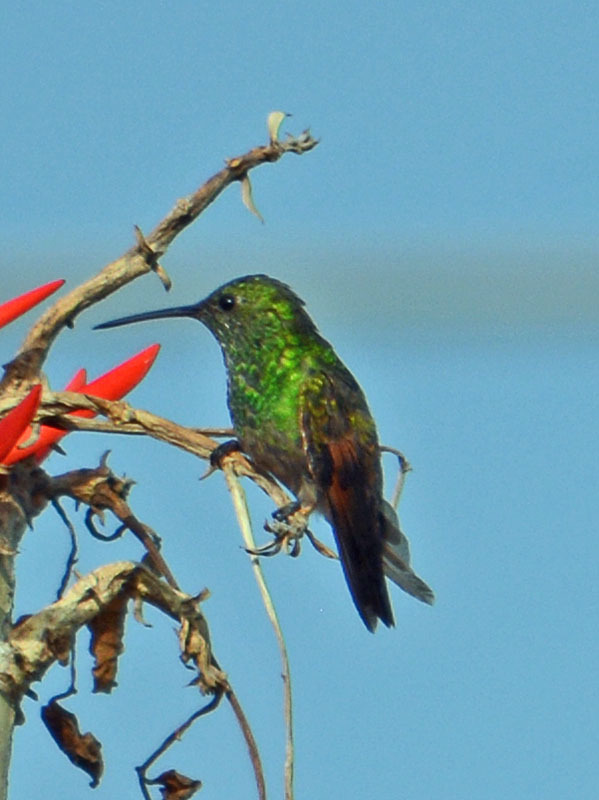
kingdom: Animalia
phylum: Chordata
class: Aves
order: Apodiformes
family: Trochilidae
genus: Saucerottia
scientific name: Saucerottia beryllina
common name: Berylline hummingbird
